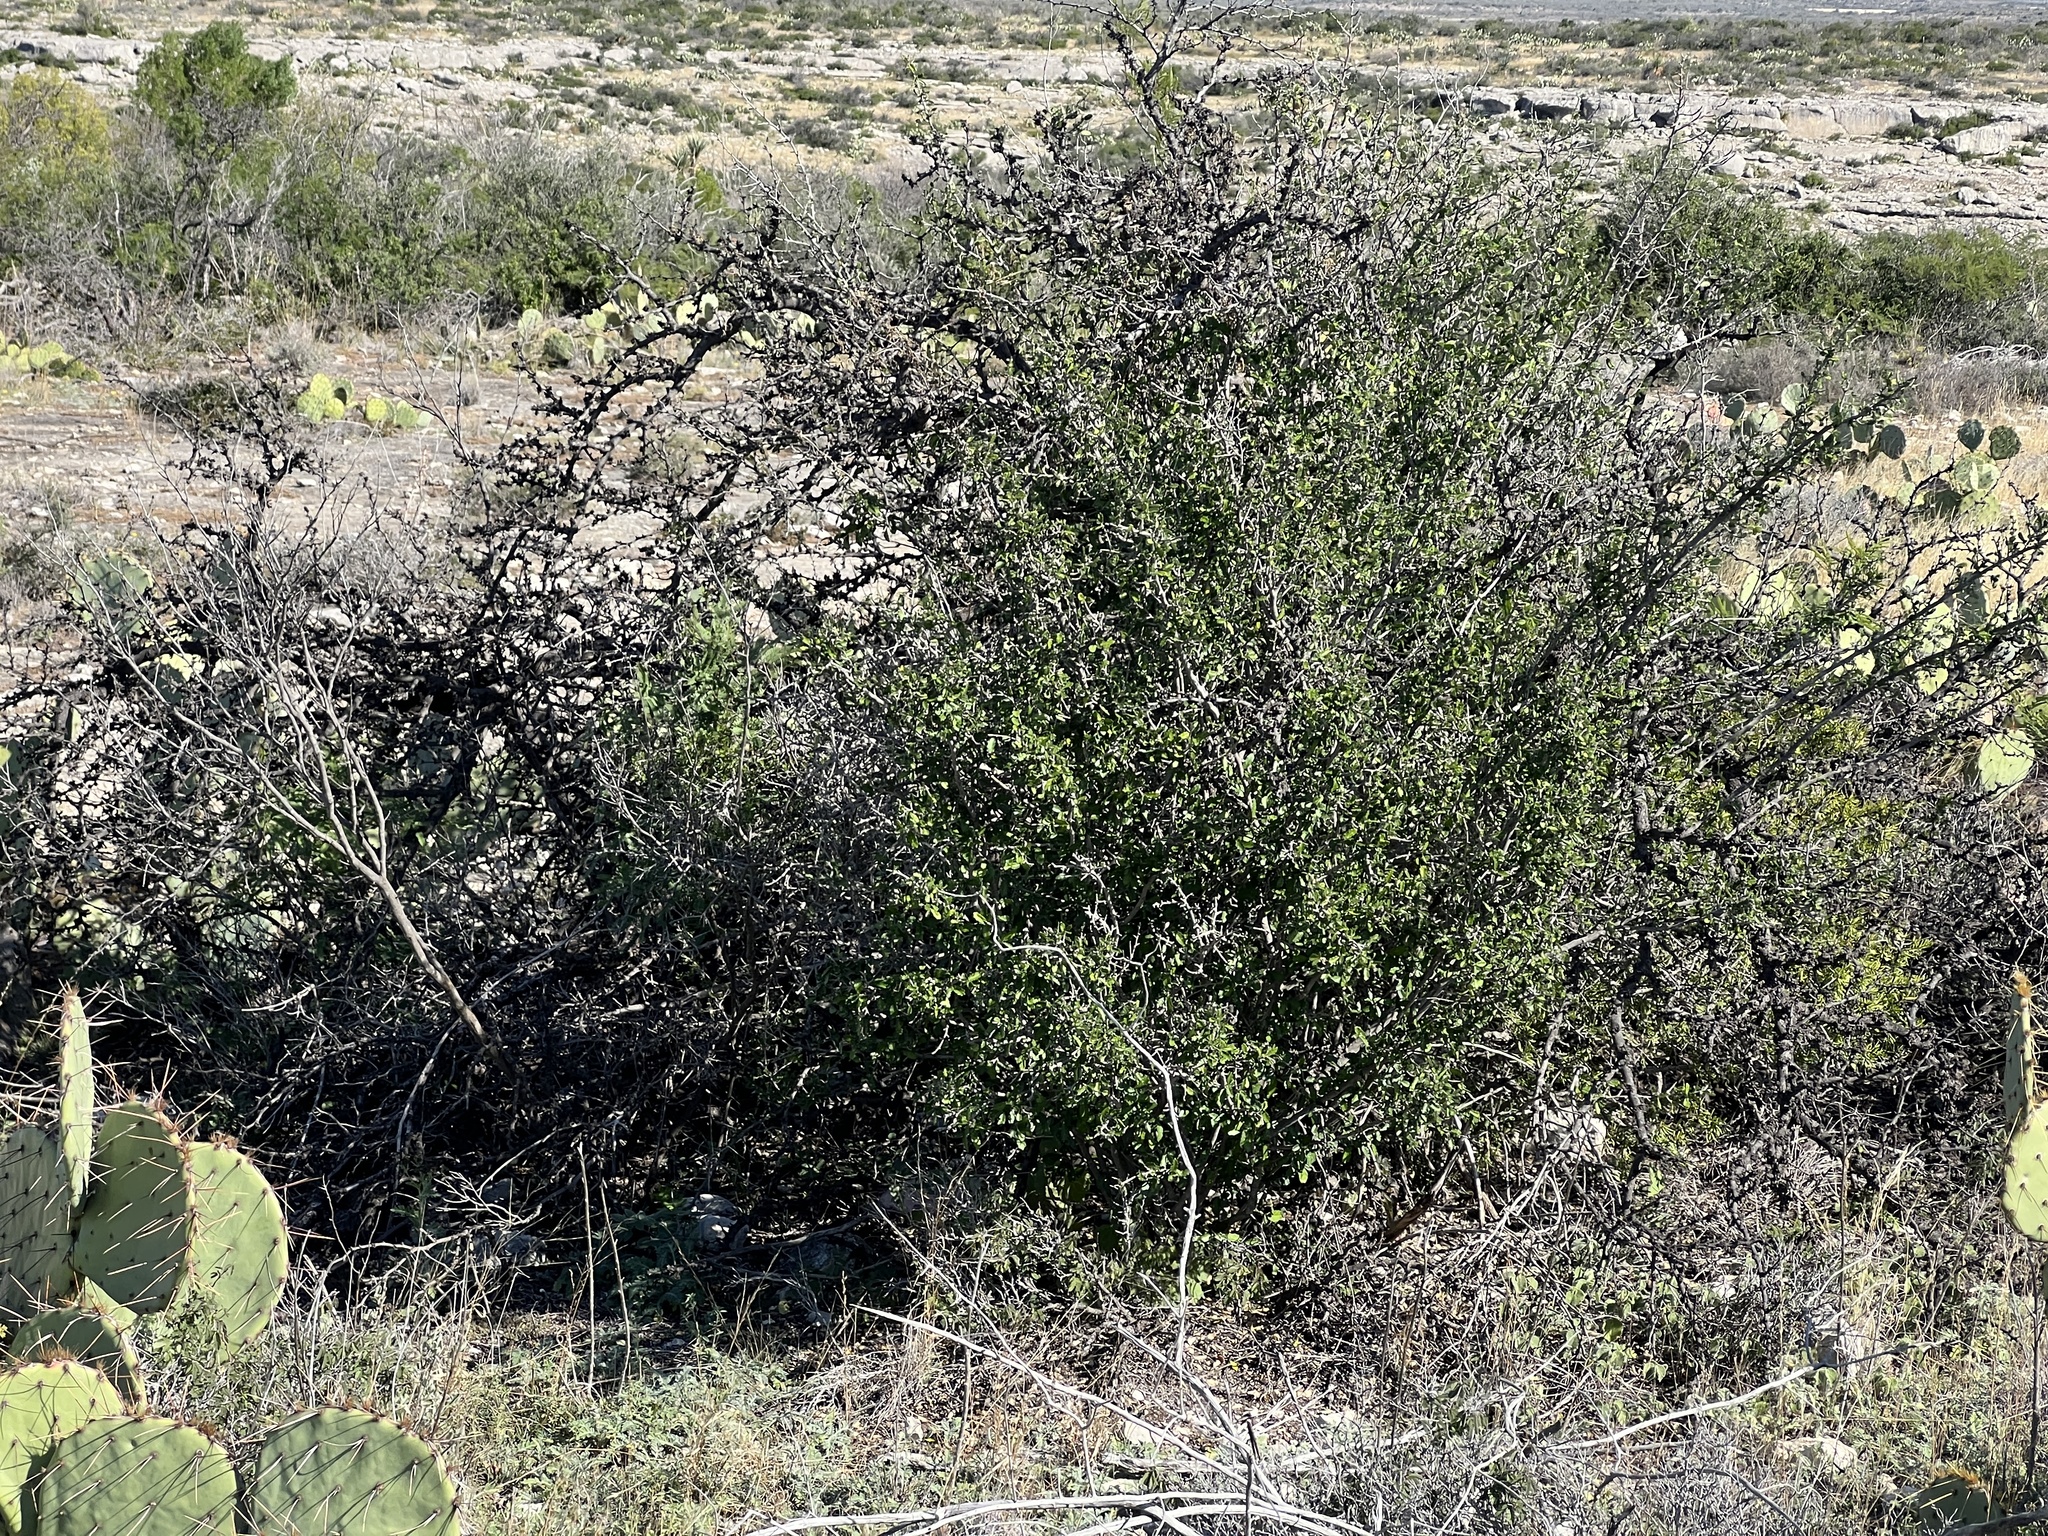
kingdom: Plantae
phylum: Tracheophyta
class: Magnoliopsida
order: Malpighiales
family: Euphorbiaceae
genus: Bernardia
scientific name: Bernardia myricifolia
